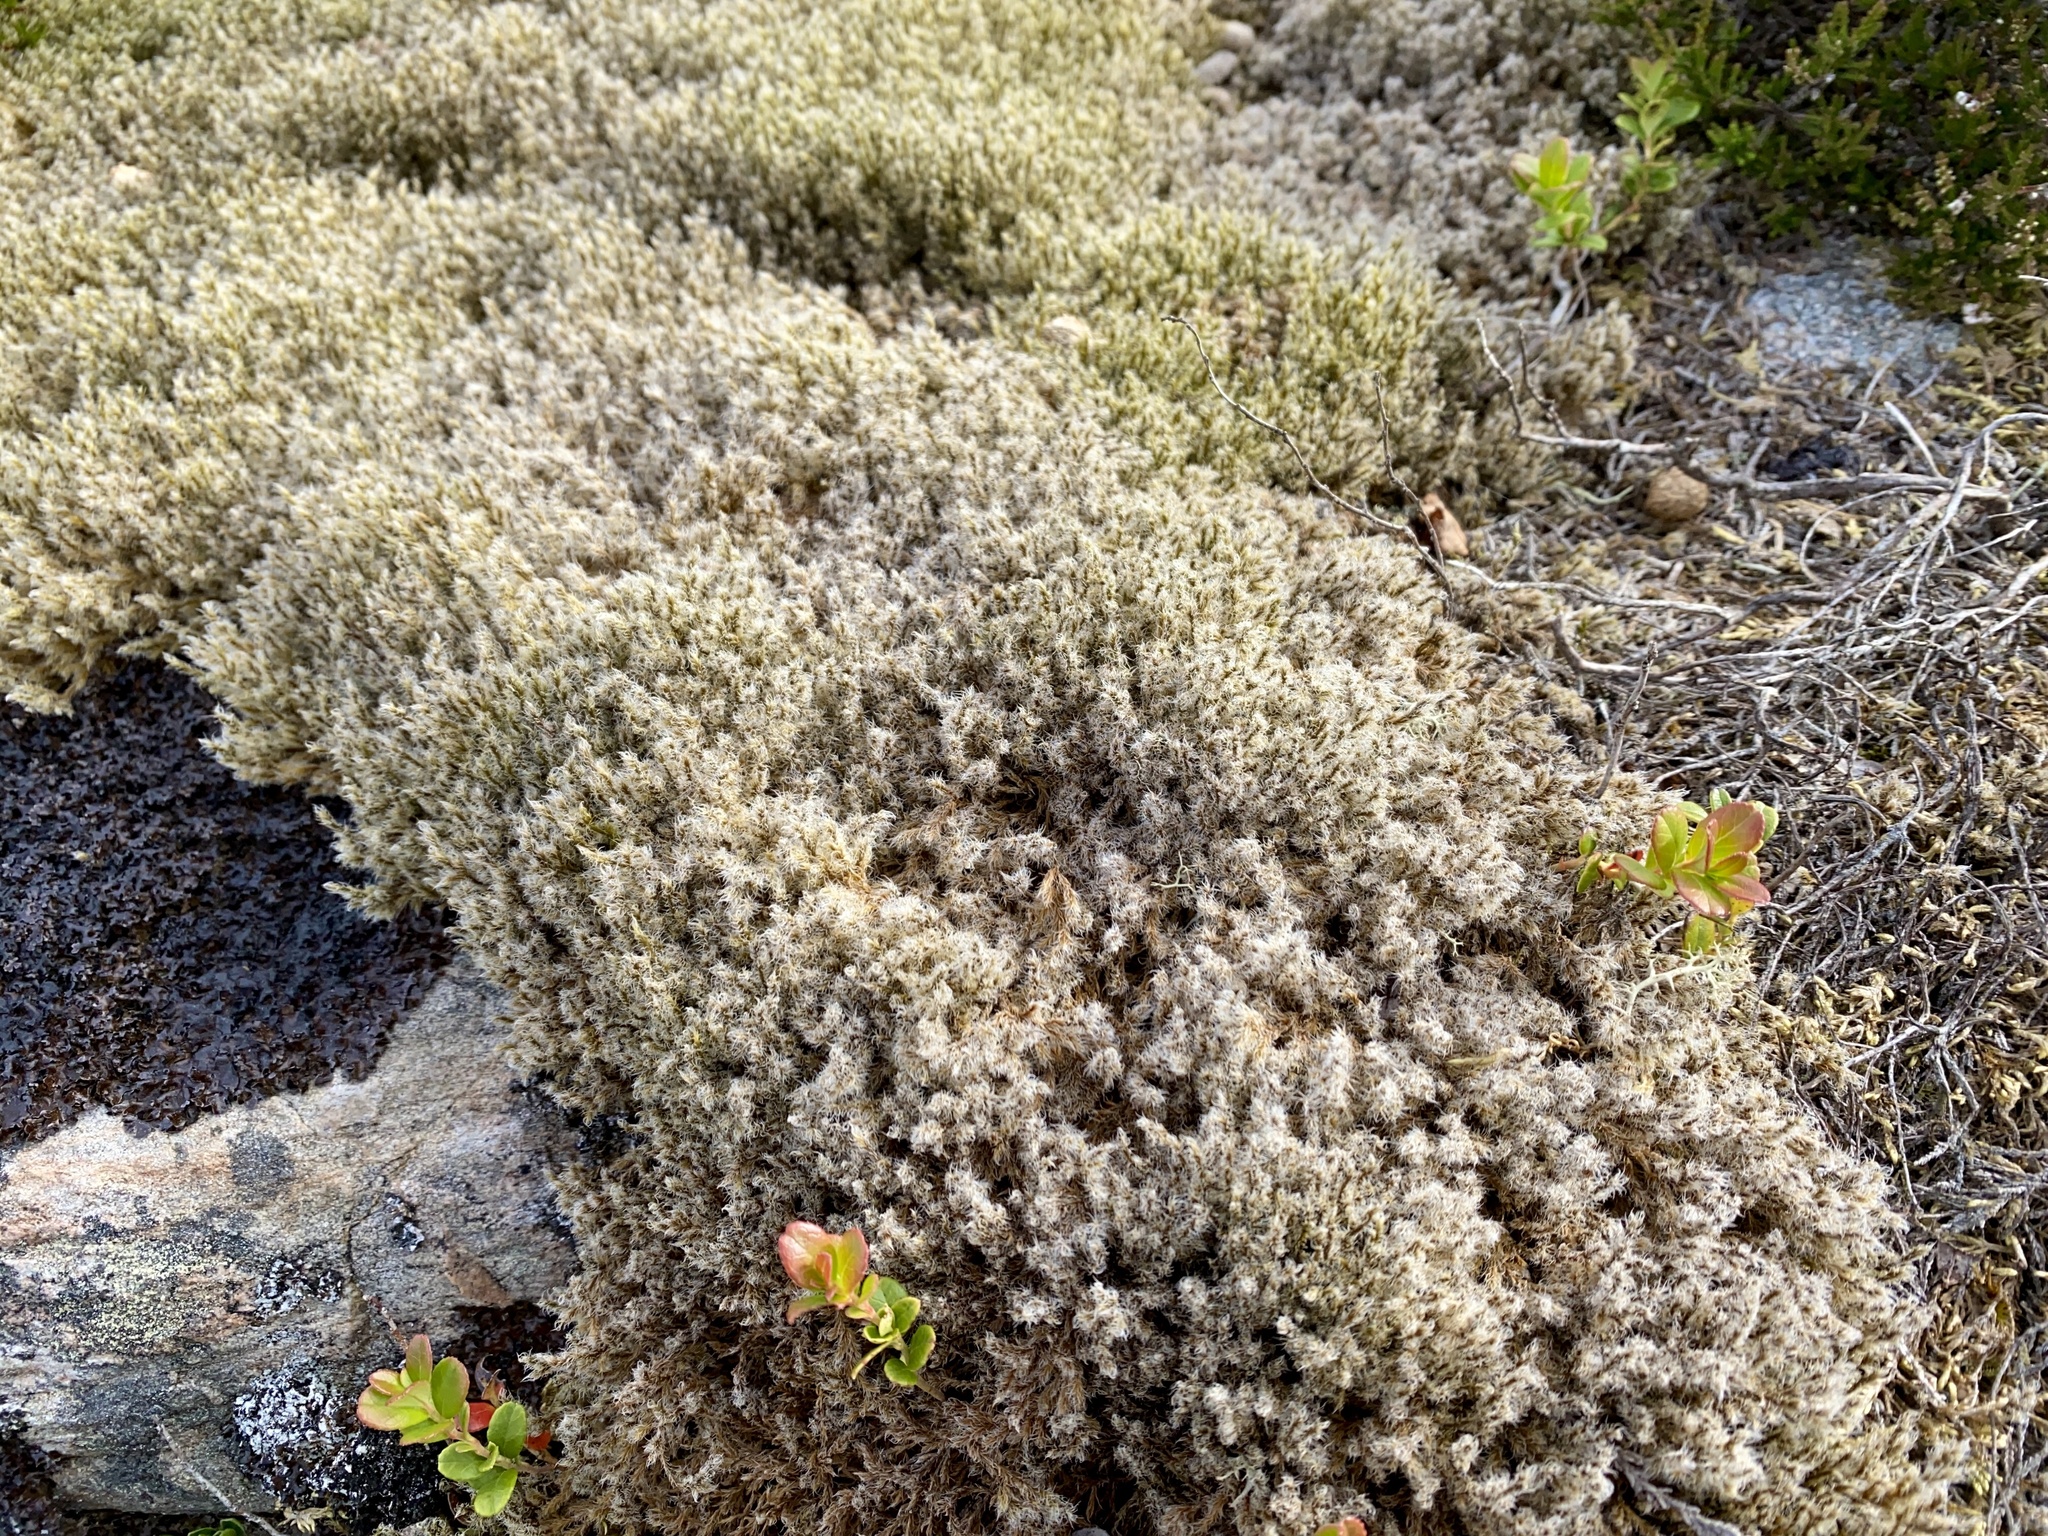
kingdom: Plantae
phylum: Bryophyta
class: Bryopsida
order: Grimmiales
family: Grimmiaceae
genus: Racomitrium
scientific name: Racomitrium lanuginosum
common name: Hoary rock moss
